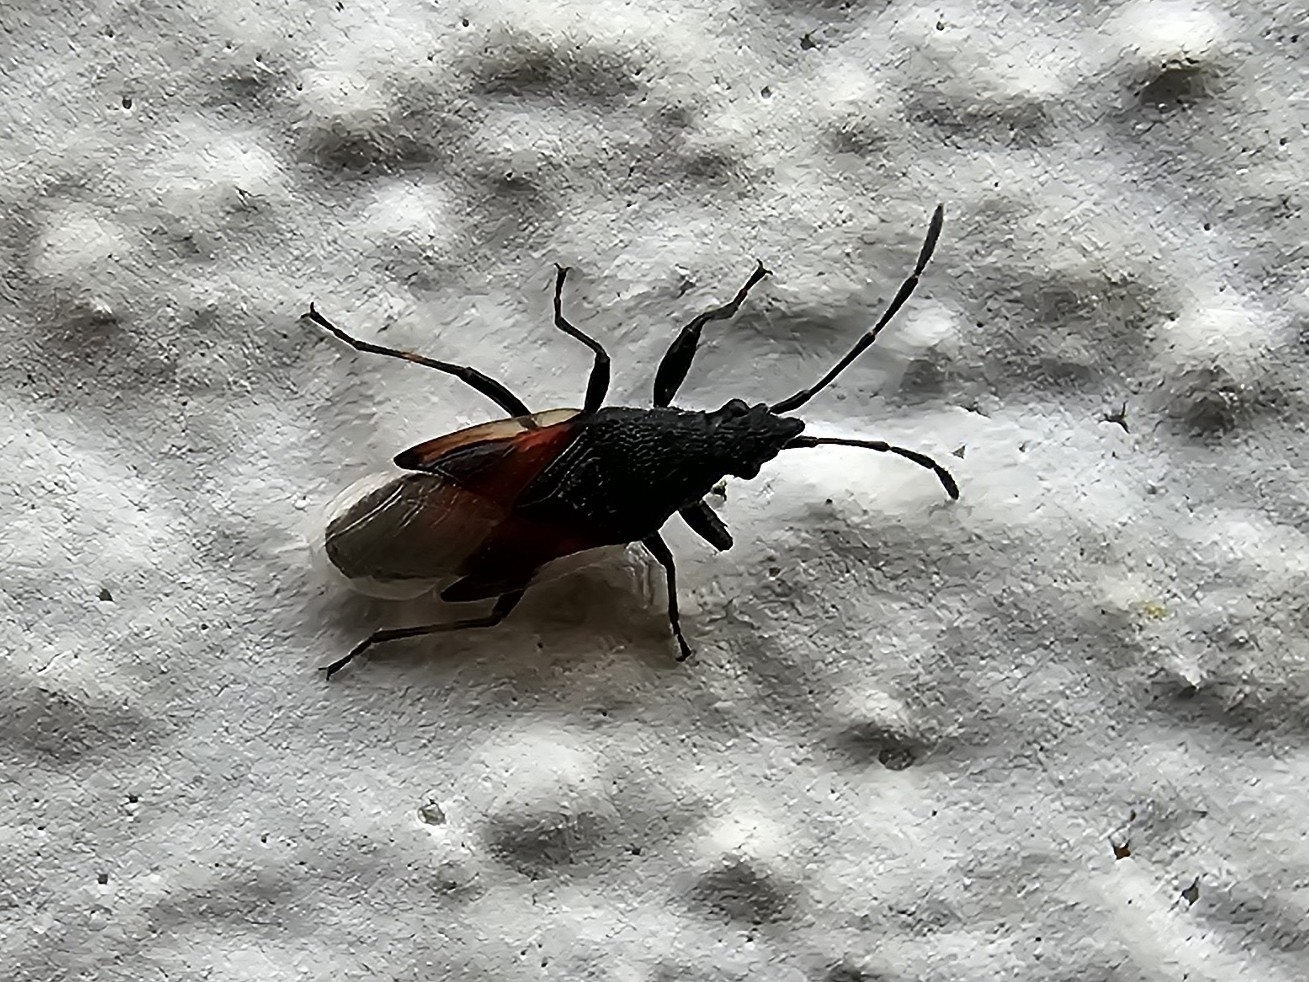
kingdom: Animalia
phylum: Arthropoda
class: Insecta
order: Hemiptera
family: Oxycarenidae
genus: Oxycarenus
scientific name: Oxycarenus lavaterae
